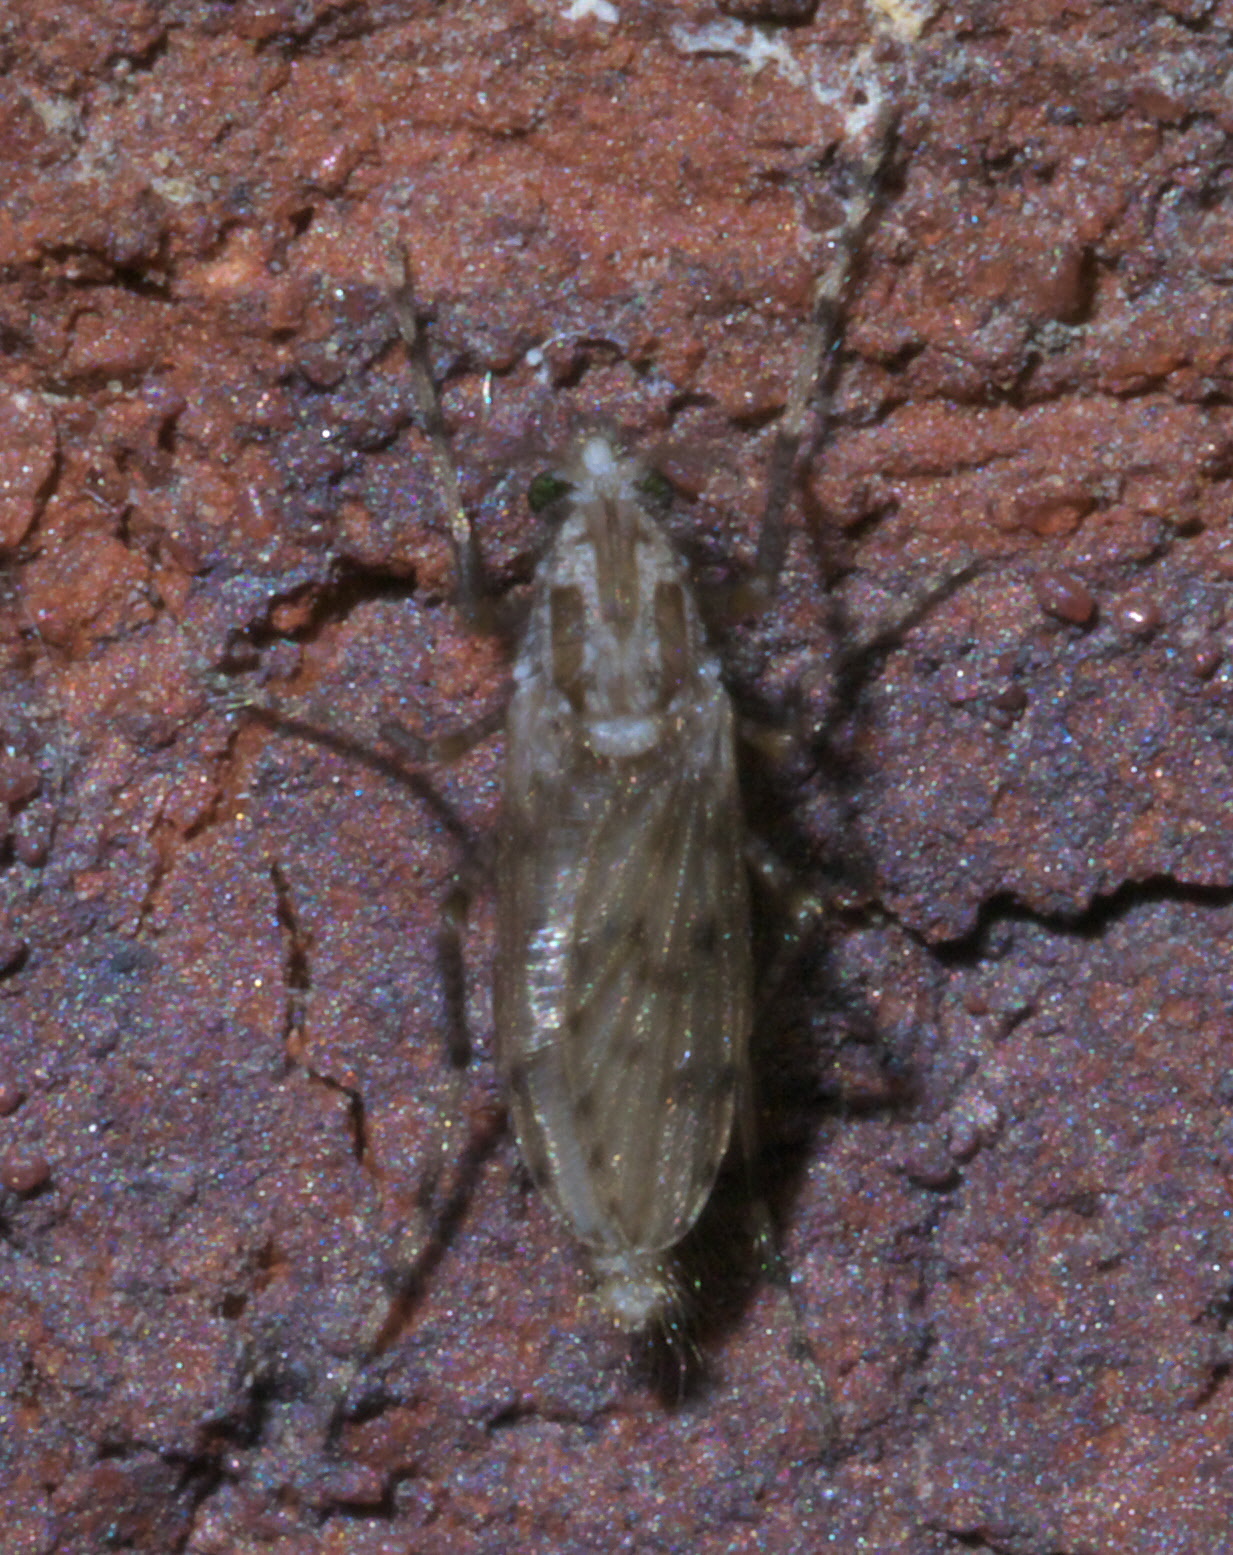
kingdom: Animalia
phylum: Arthropoda
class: Insecta
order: Diptera
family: Chaoboridae
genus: Chaoborus
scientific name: Chaoborus punctipennis
